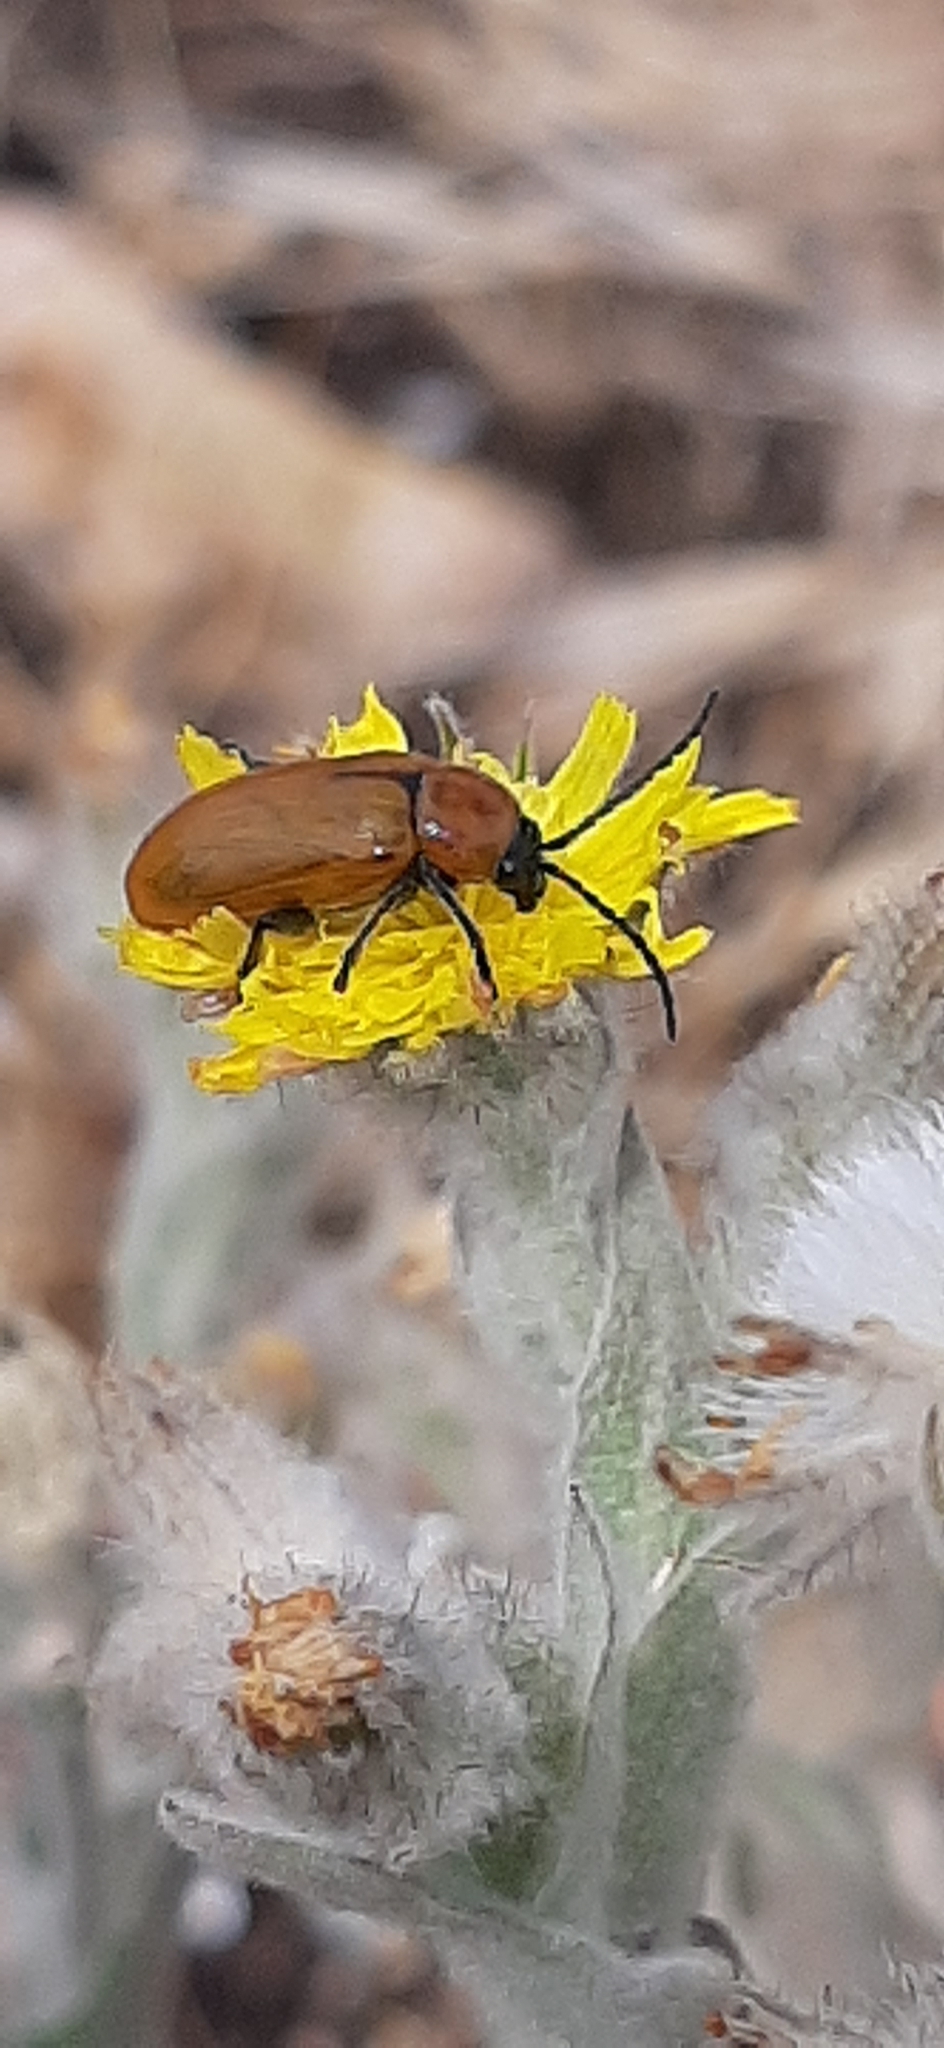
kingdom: Animalia
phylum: Arthropoda
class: Insecta
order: Coleoptera
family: Chrysomelidae
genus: Exosoma
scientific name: Exosoma lusitanicum
